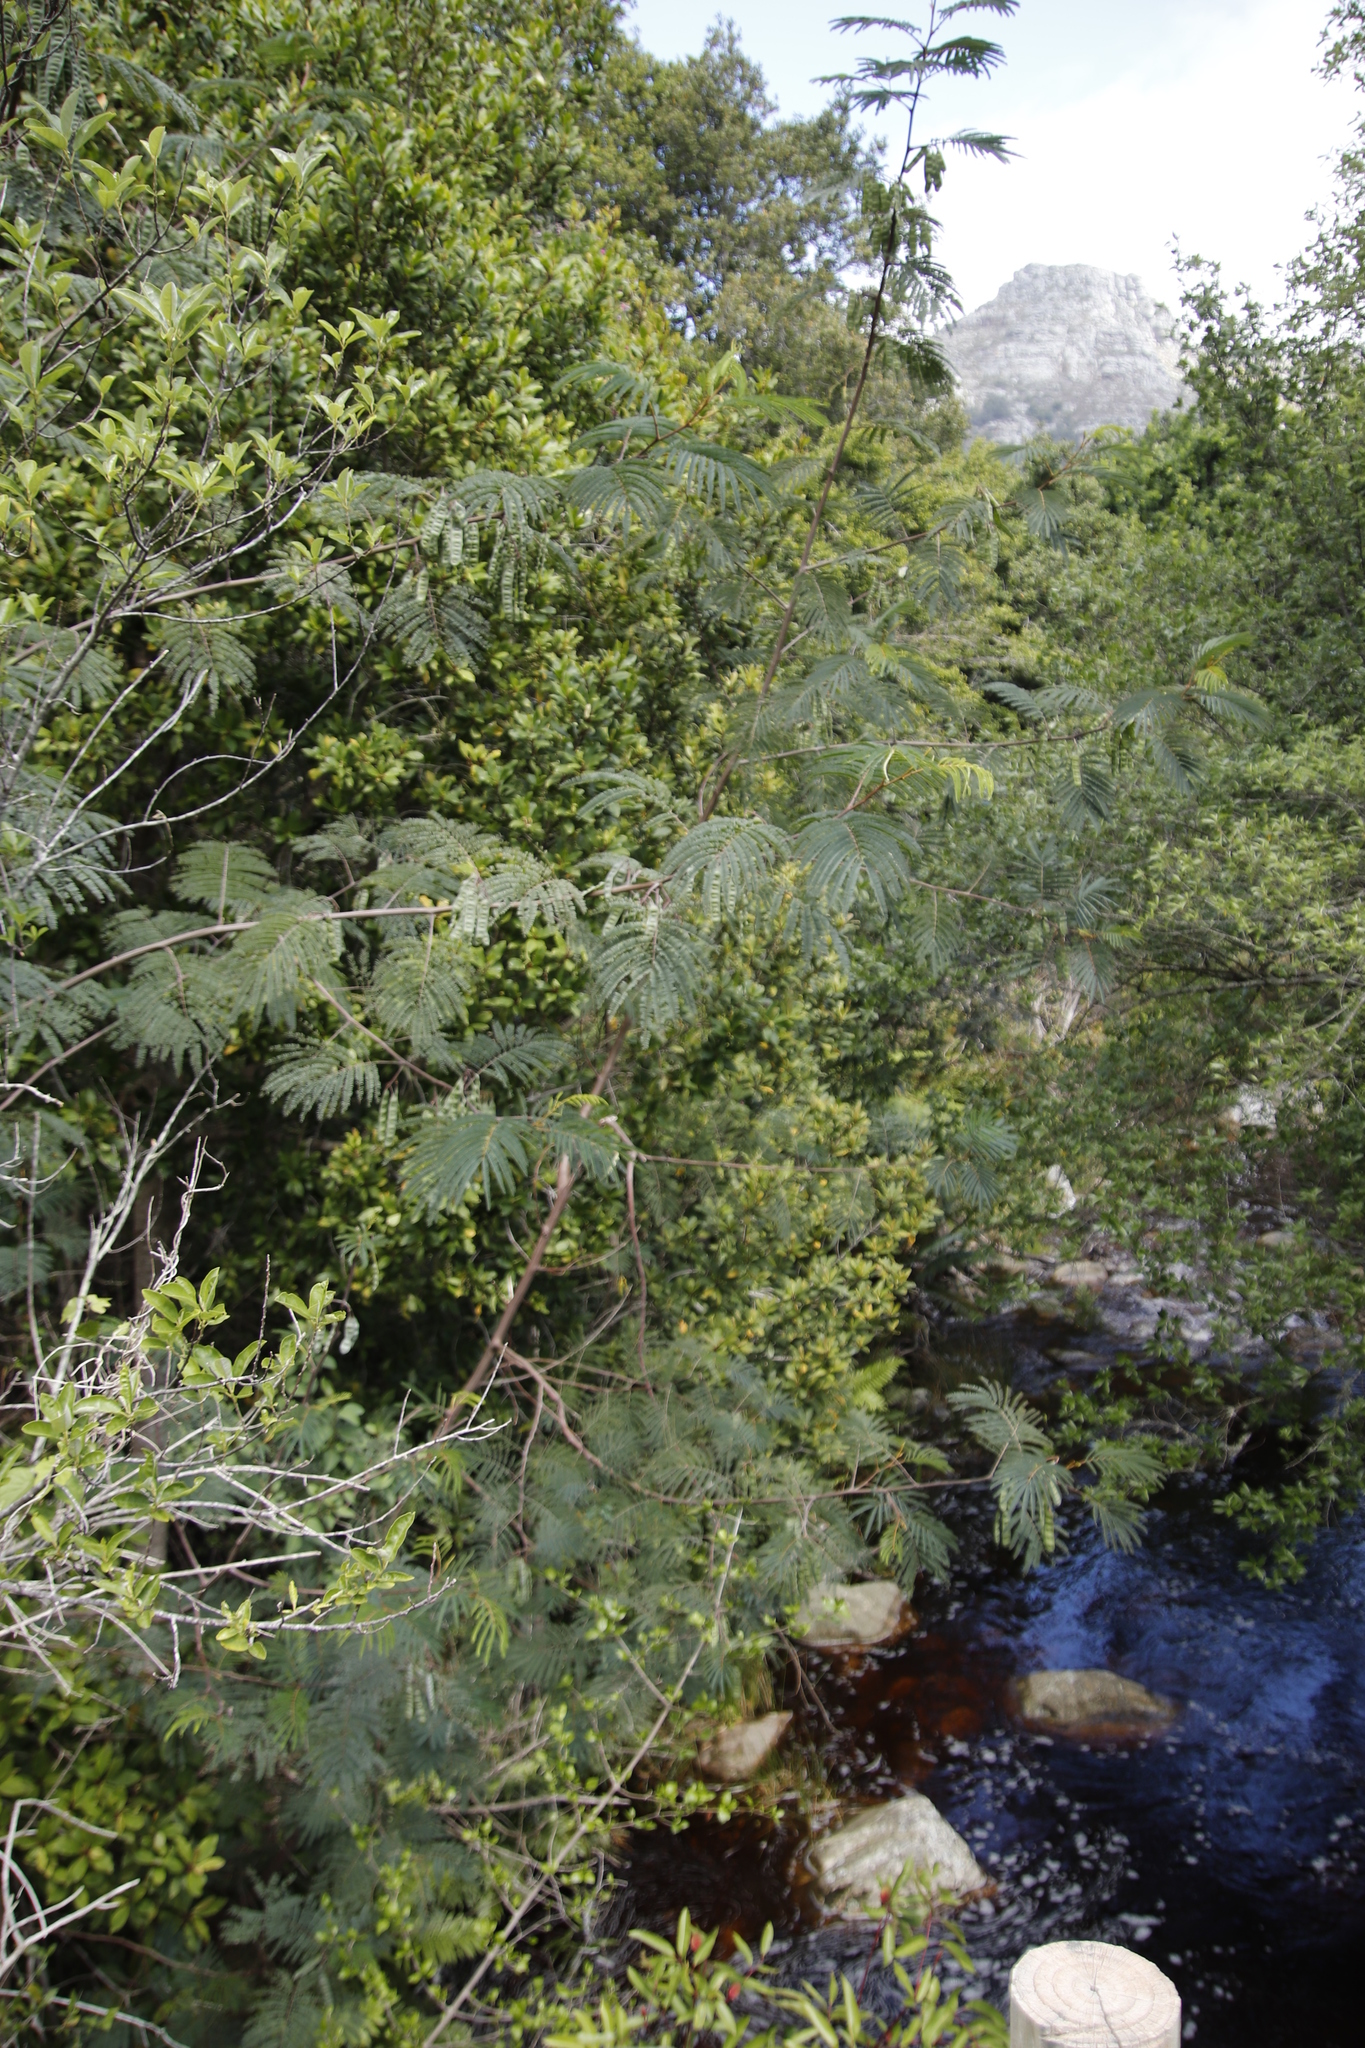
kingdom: Plantae
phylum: Tracheophyta
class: Magnoliopsida
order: Fabales
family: Fabaceae
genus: Acacia
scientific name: Acacia mearnsii
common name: Black wattle
